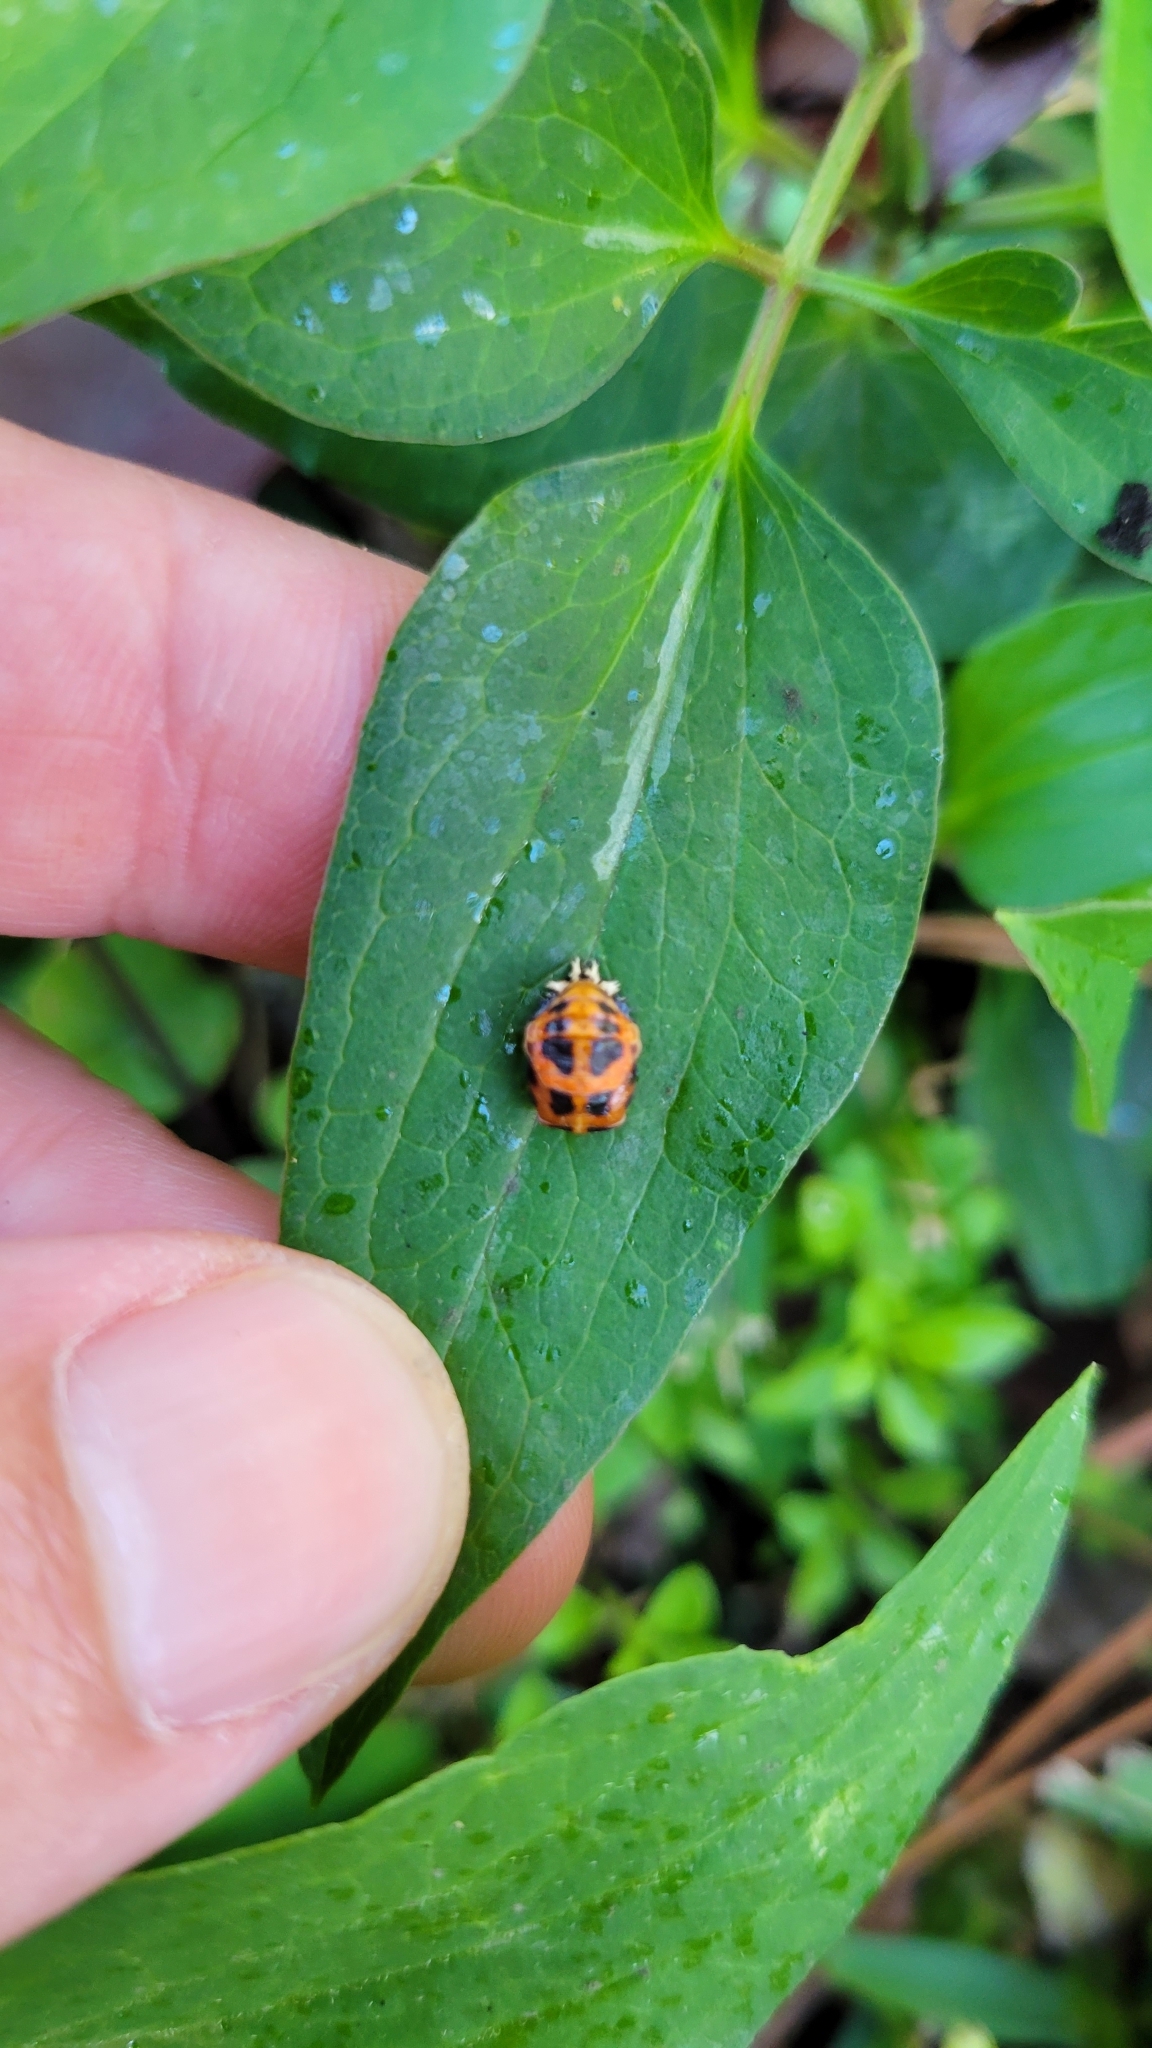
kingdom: Animalia
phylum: Arthropoda
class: Insecta
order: Coleoptera
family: Coccinellidae
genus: Harmonia
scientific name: Harmonia axyridis
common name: Harlequin ladybird
